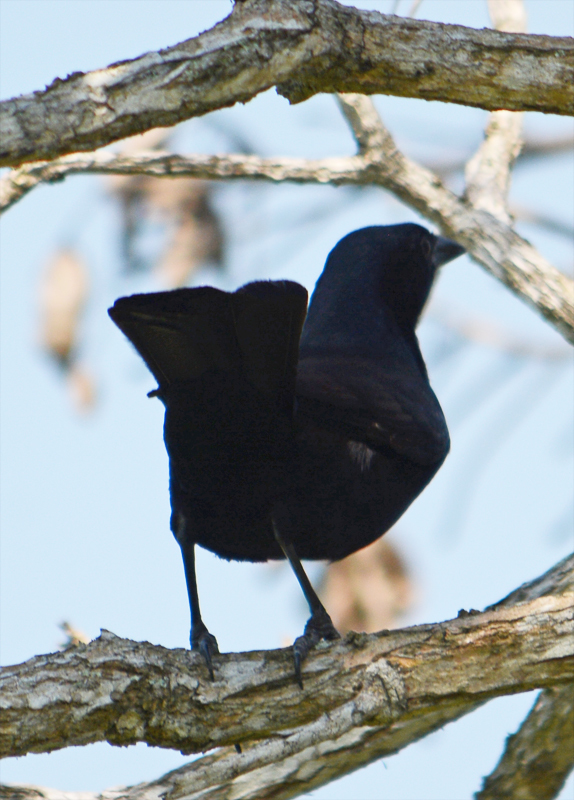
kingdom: Animalia
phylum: Chordata
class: Aves
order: Passeriformes
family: Icteridae
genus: Dives
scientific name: Dives dives
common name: Melodious blackbird
